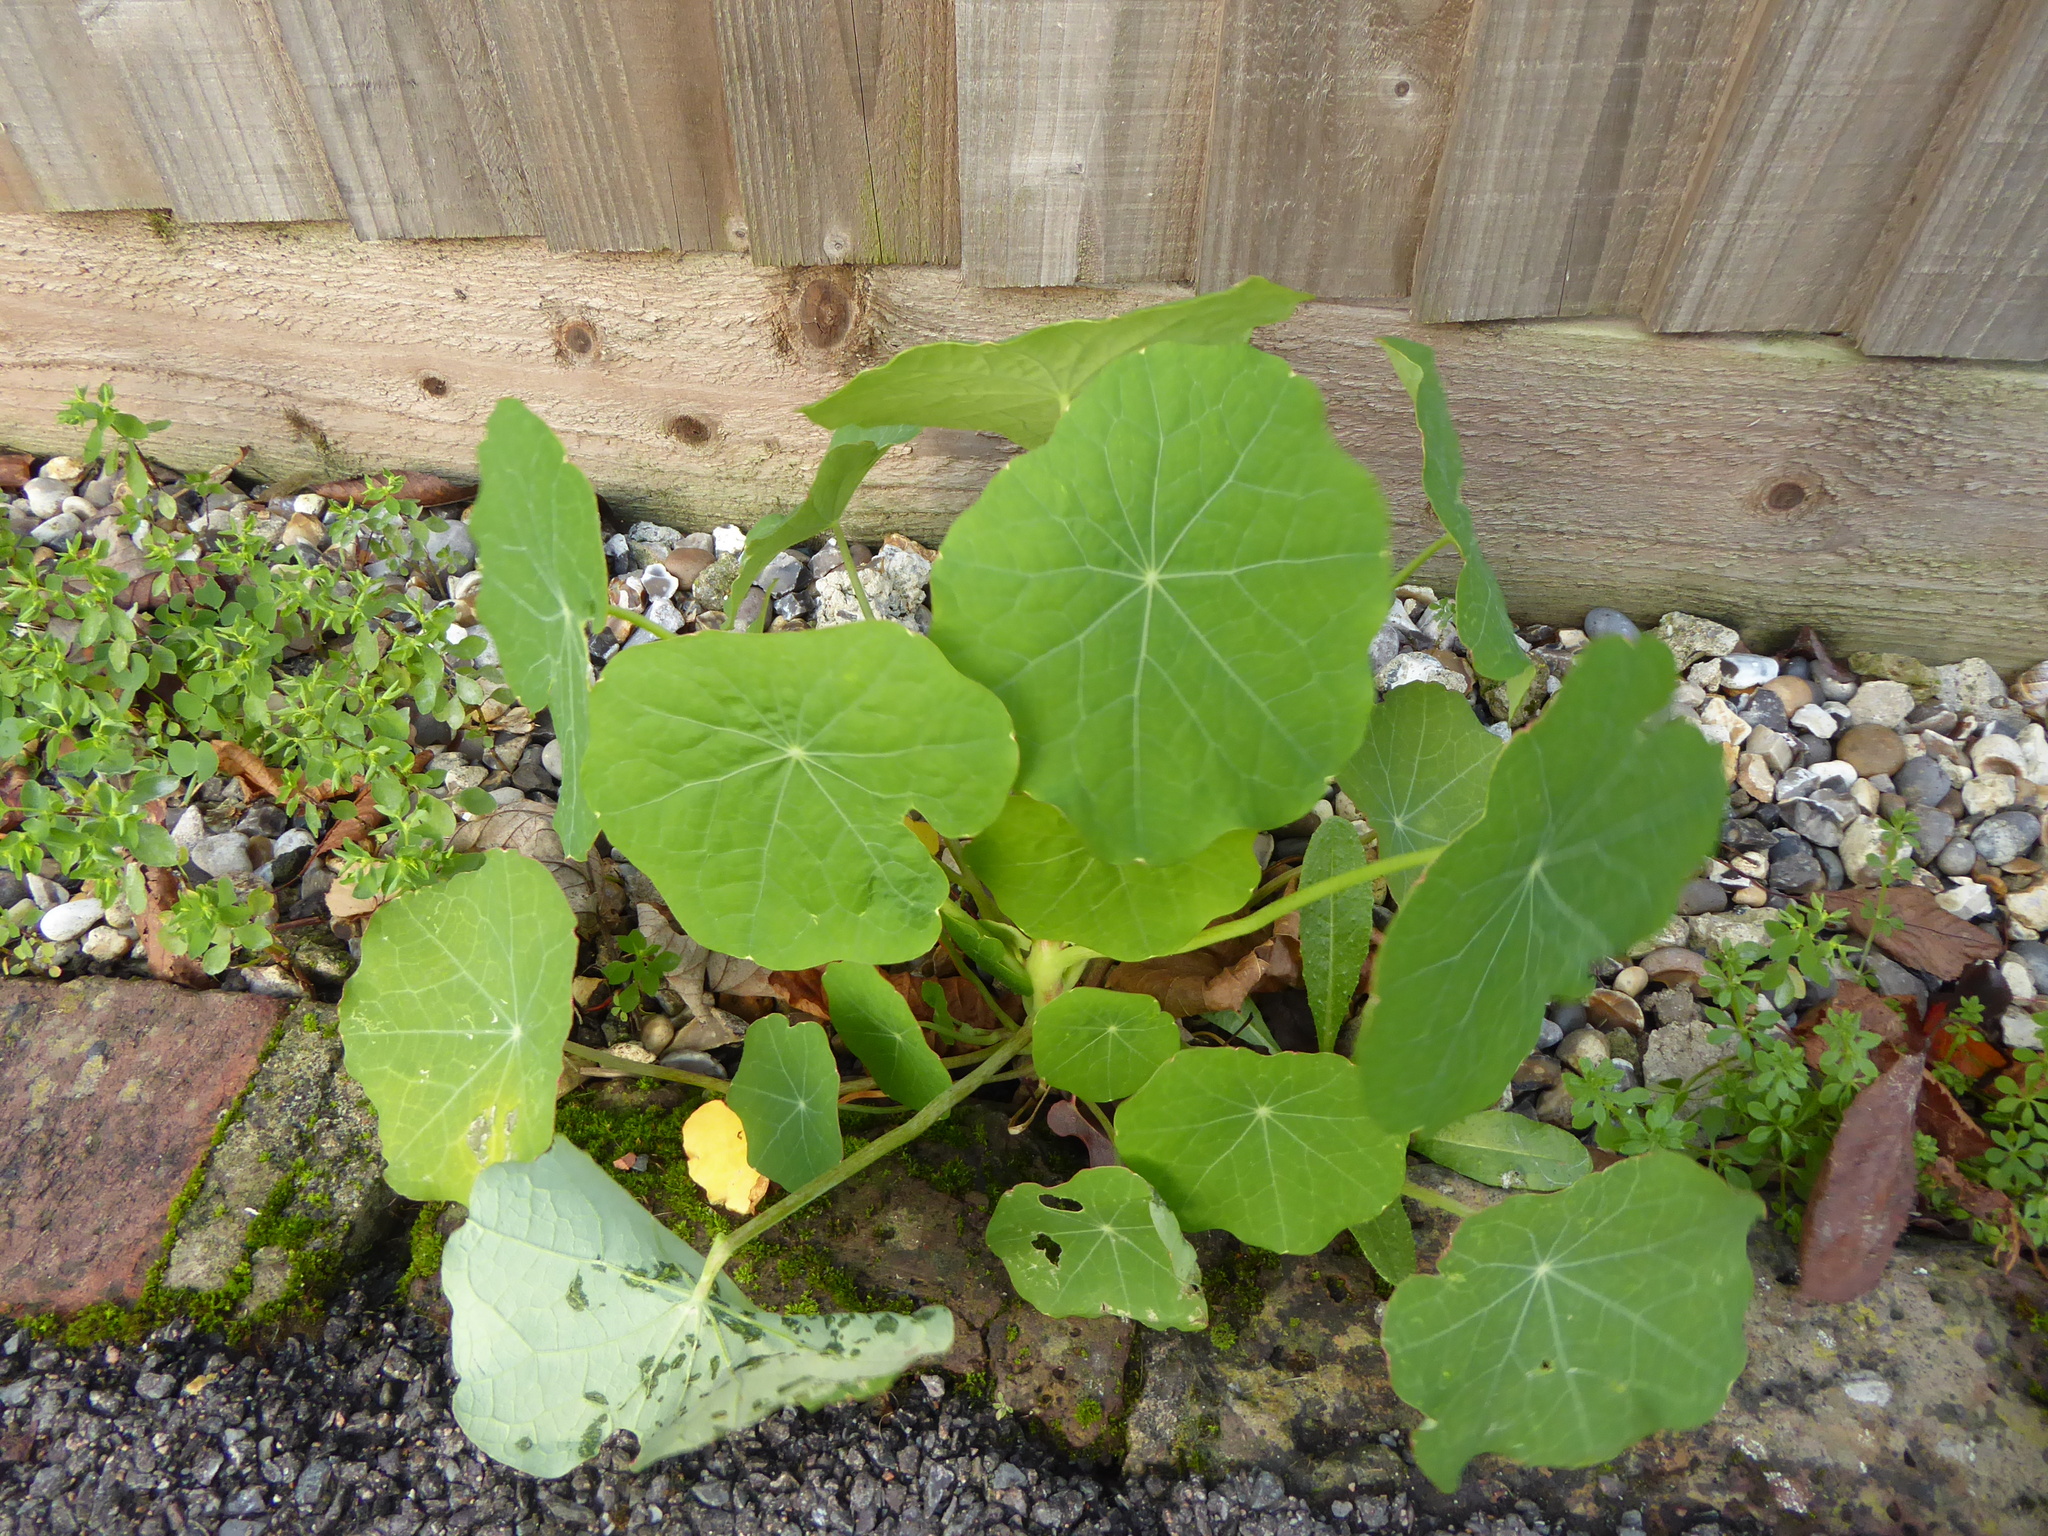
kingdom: Plantae
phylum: Tracheophyta
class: Magnoliopsida
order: Brassicales
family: Tropaeolaceae
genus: Tropaeolum
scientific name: Tropaeolum majus
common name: Nasturtium
